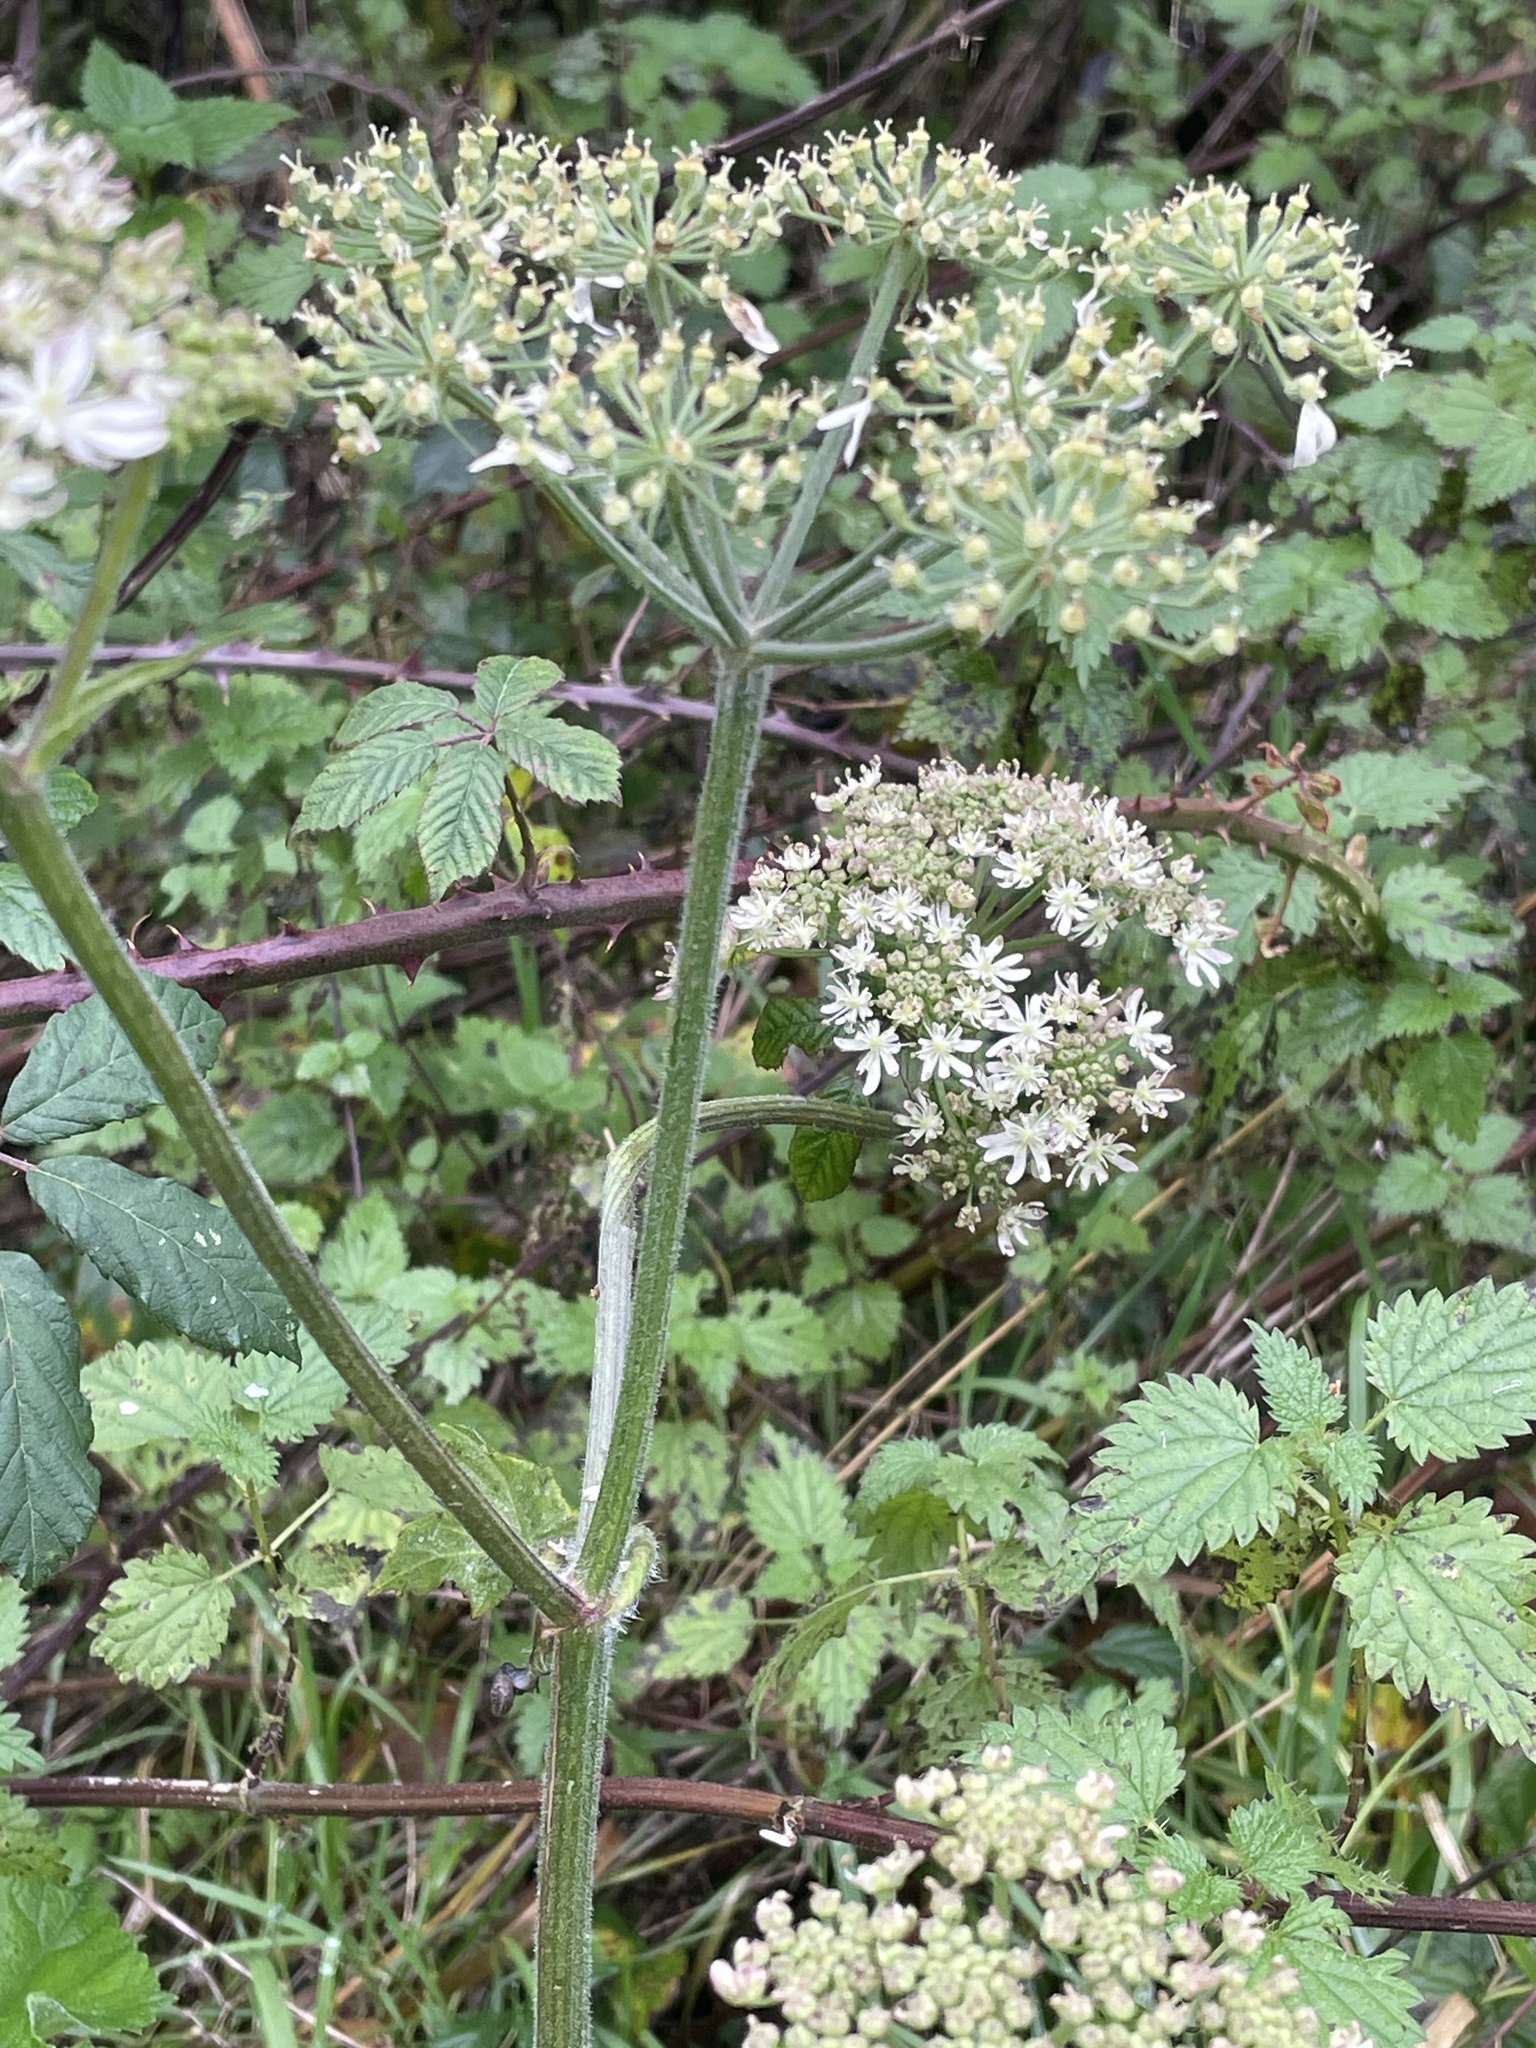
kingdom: Plantae
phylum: Tracheophyta
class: Magnoliopsida
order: Apiales
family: Apiaceae
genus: Heracleum
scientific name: Heracleum sphondylium
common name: Hogweed
